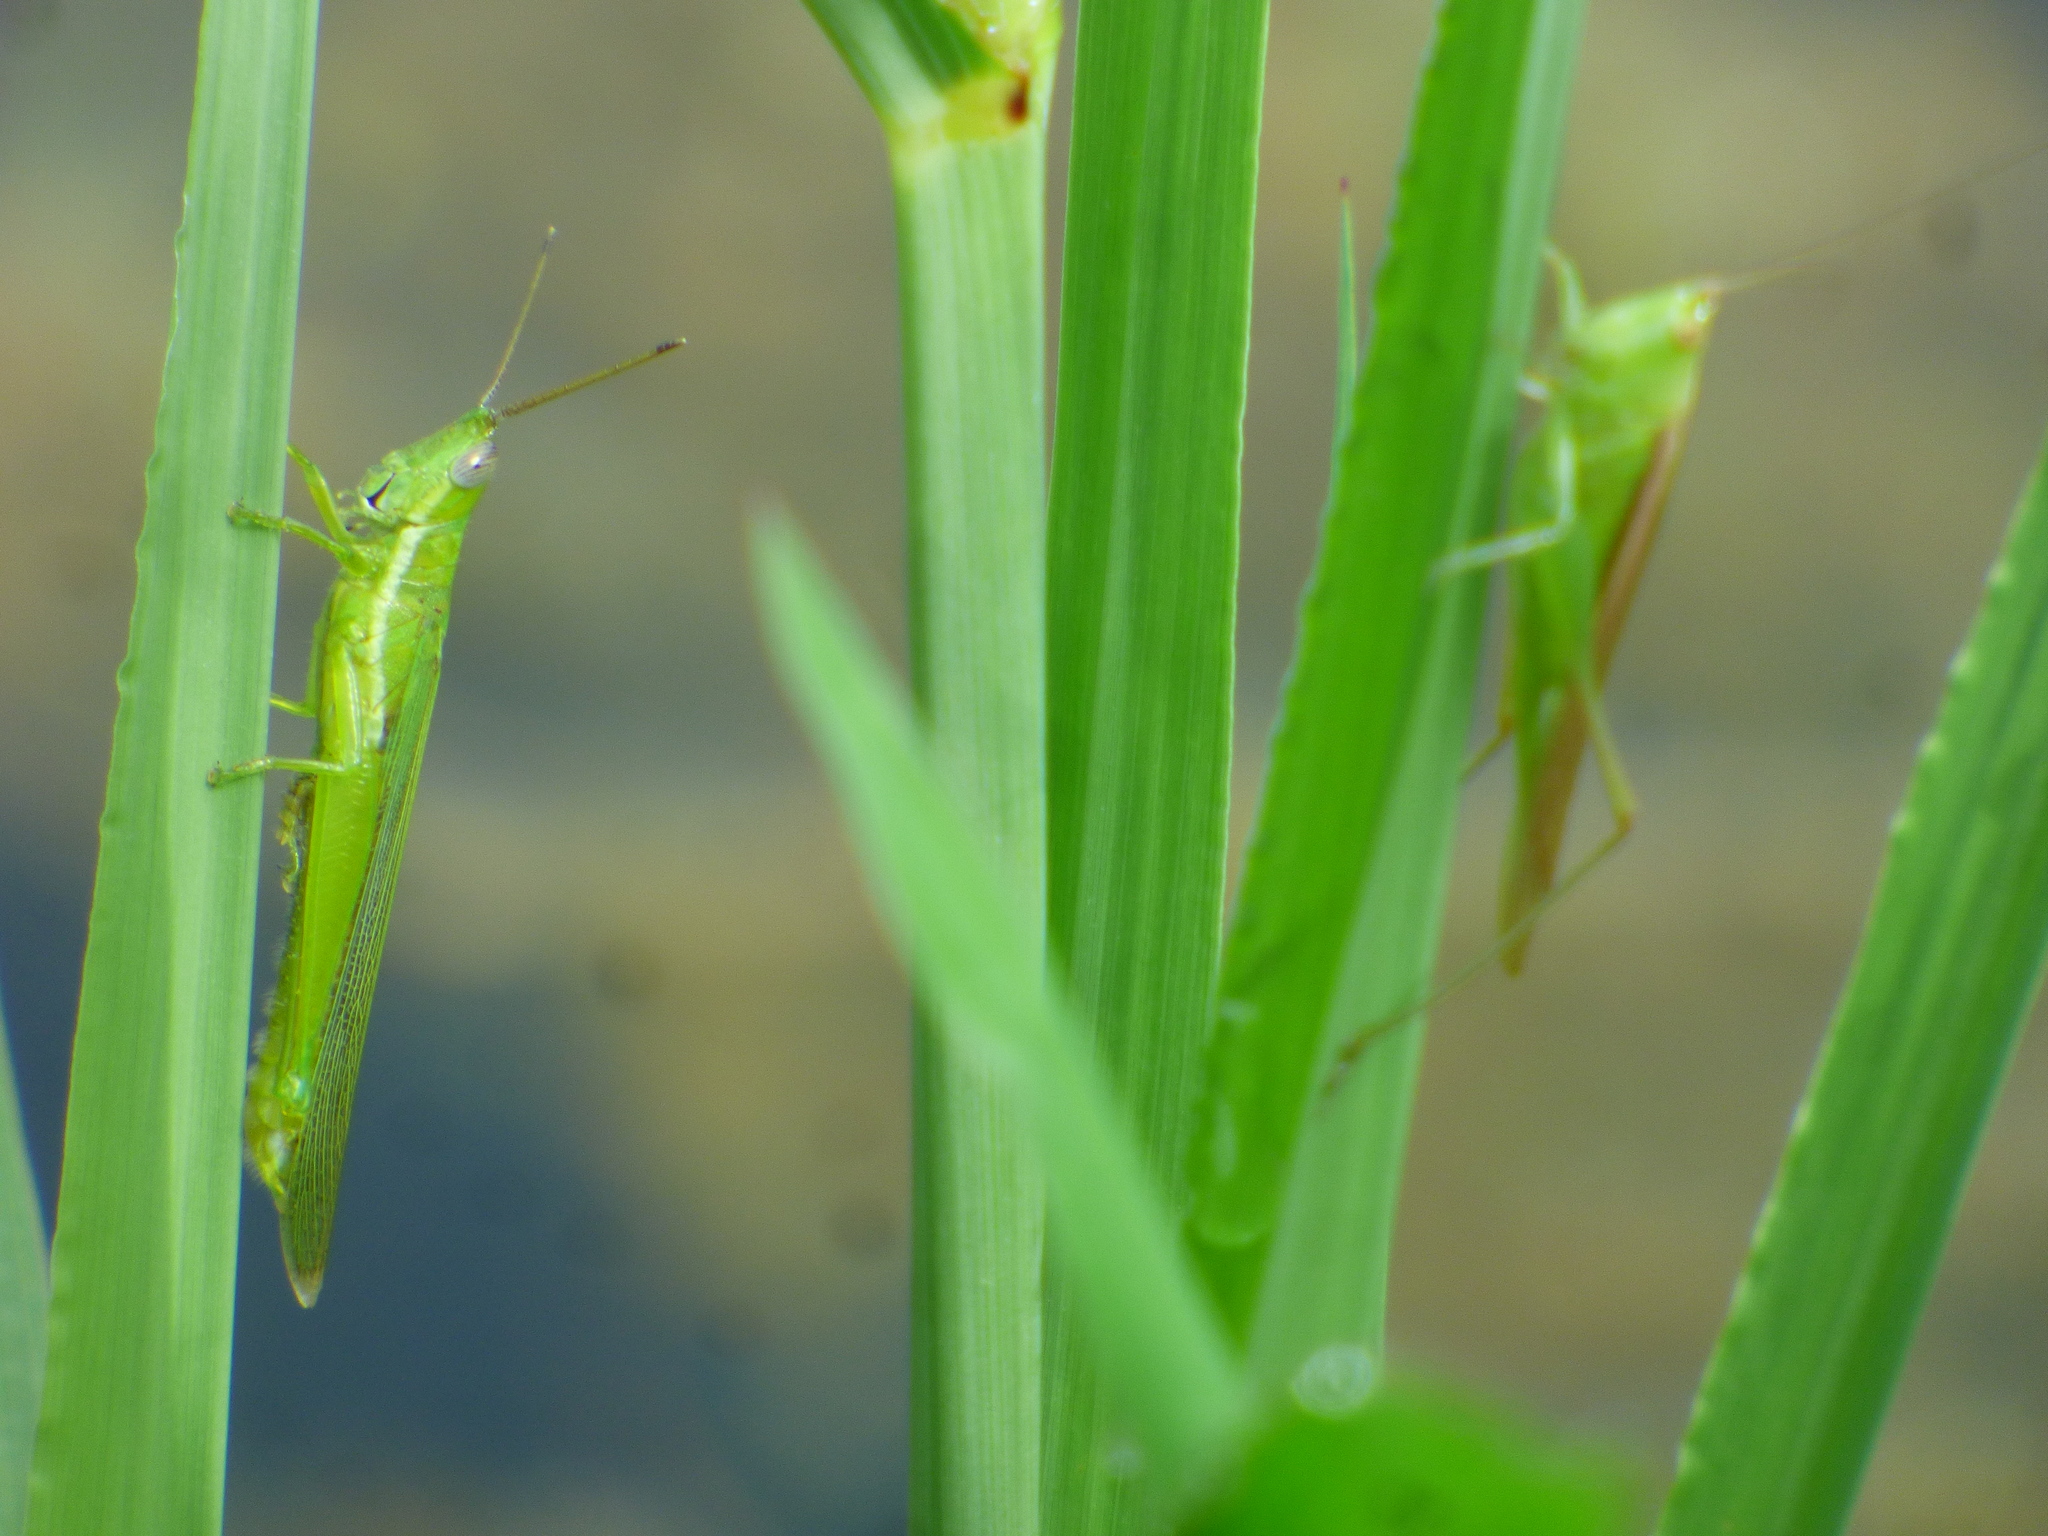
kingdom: Animalia
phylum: Arthropoda
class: Insecta
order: Orthoptera
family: Acrididae
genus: Stenacris
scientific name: Stenacris vitreipennis
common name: Glassy-winged toothpick grasshopper
